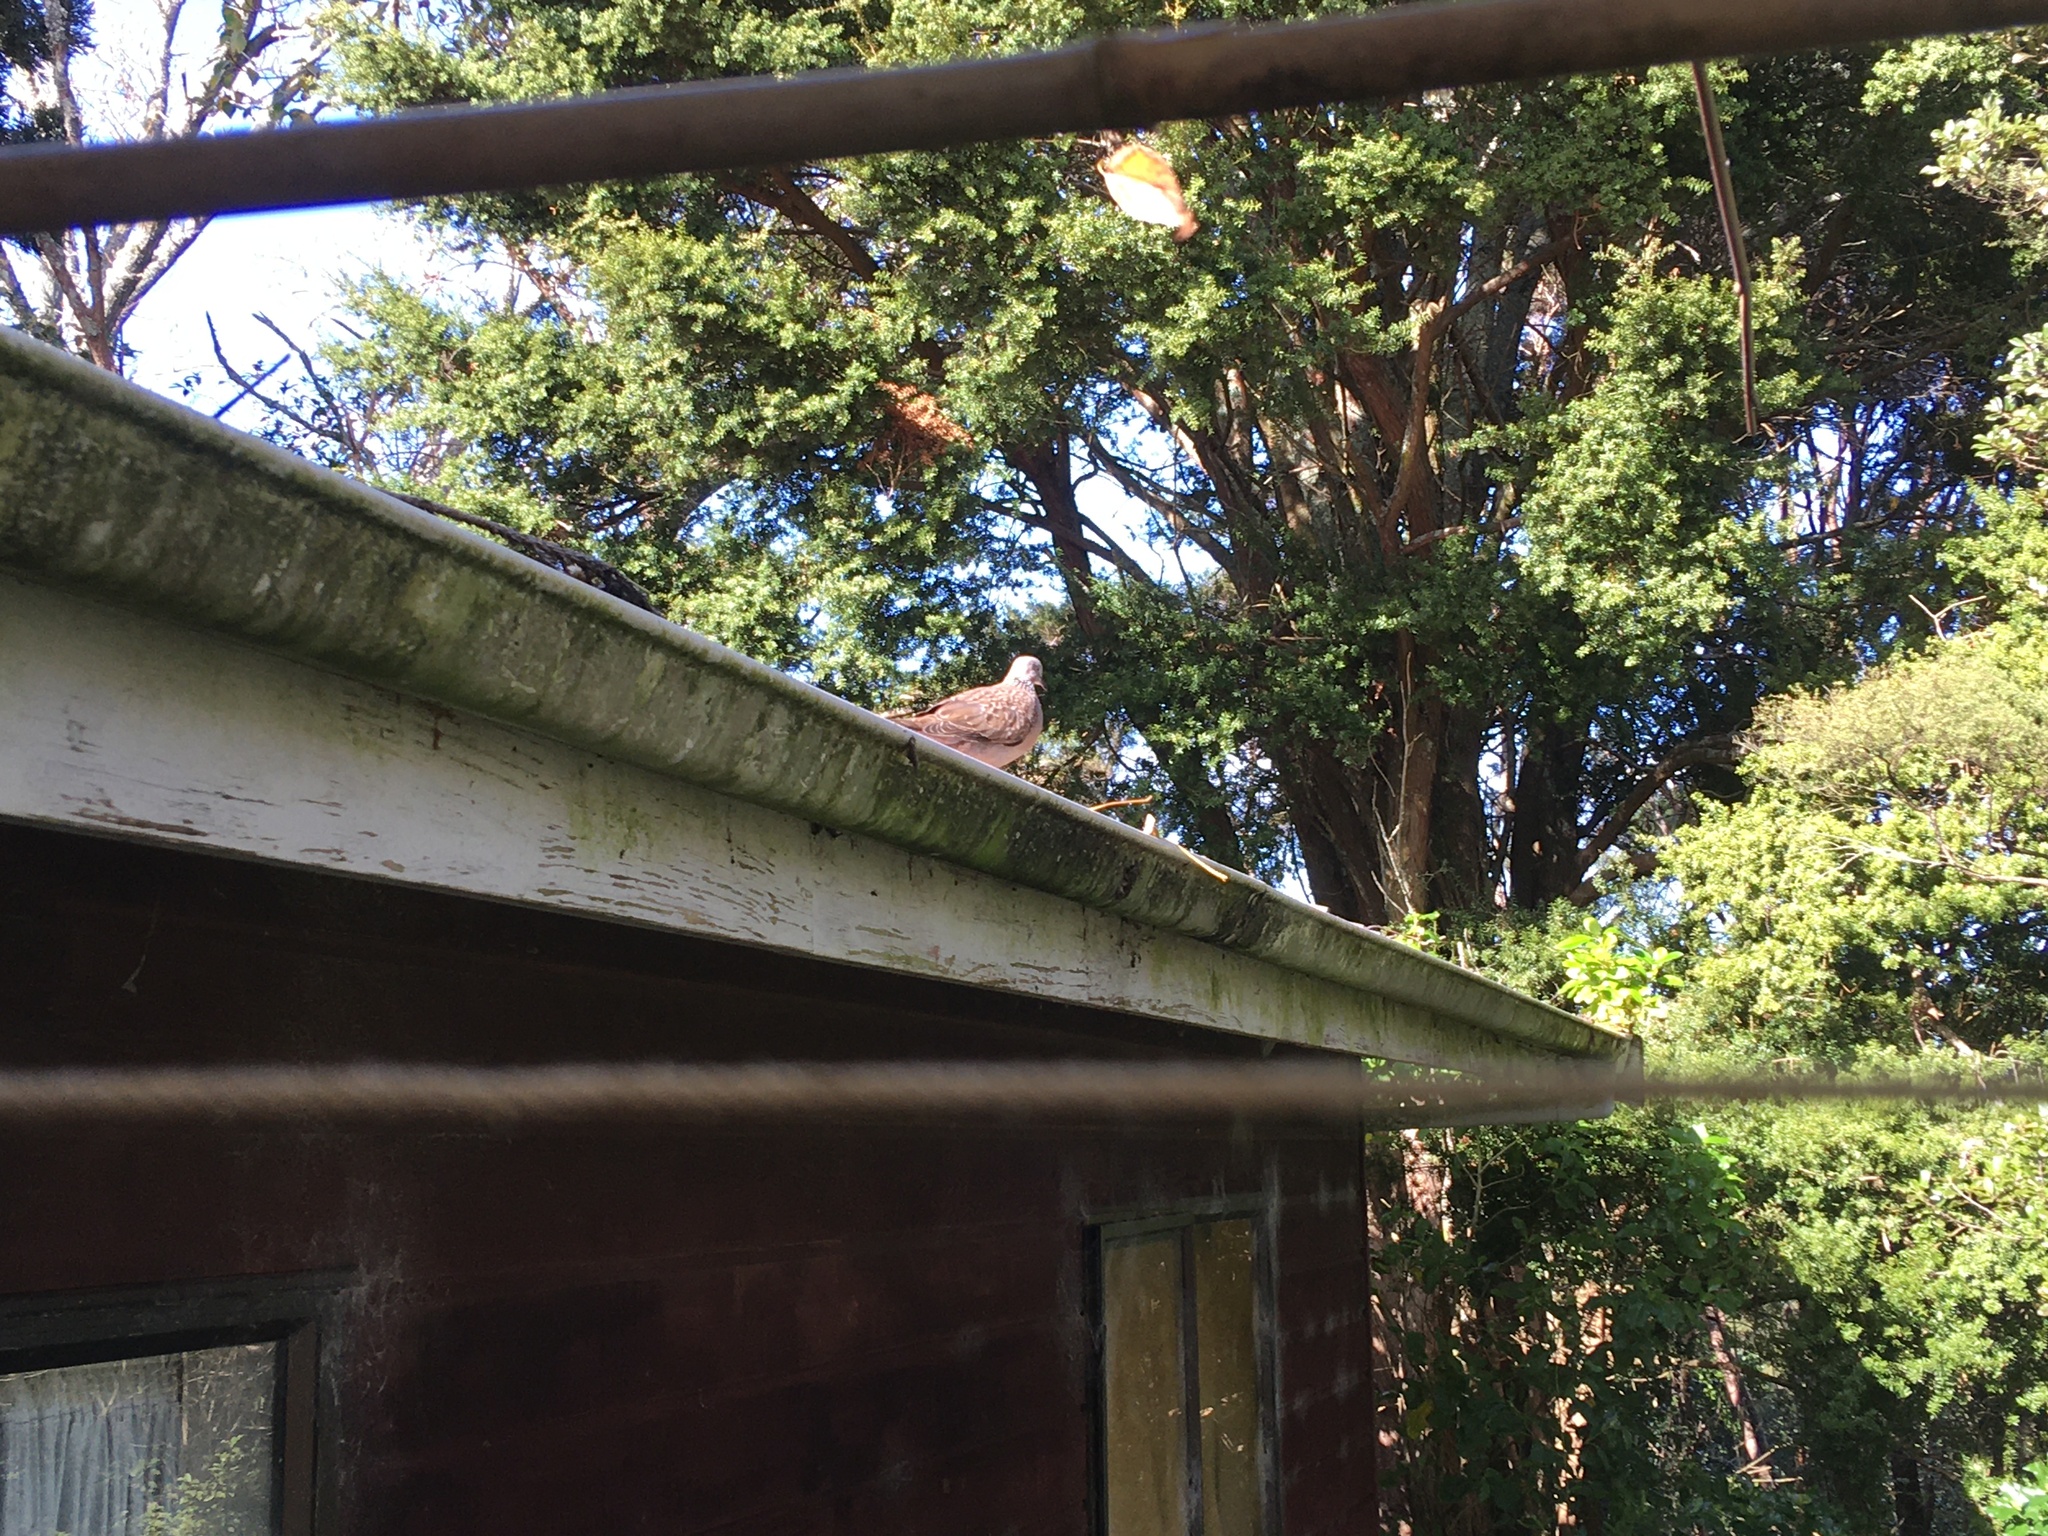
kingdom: Animalia
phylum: Chordata
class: Aves
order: Columbiformes
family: Columbidae
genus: Spilopelia
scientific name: Spilopelia chinensis
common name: Spotted dove
